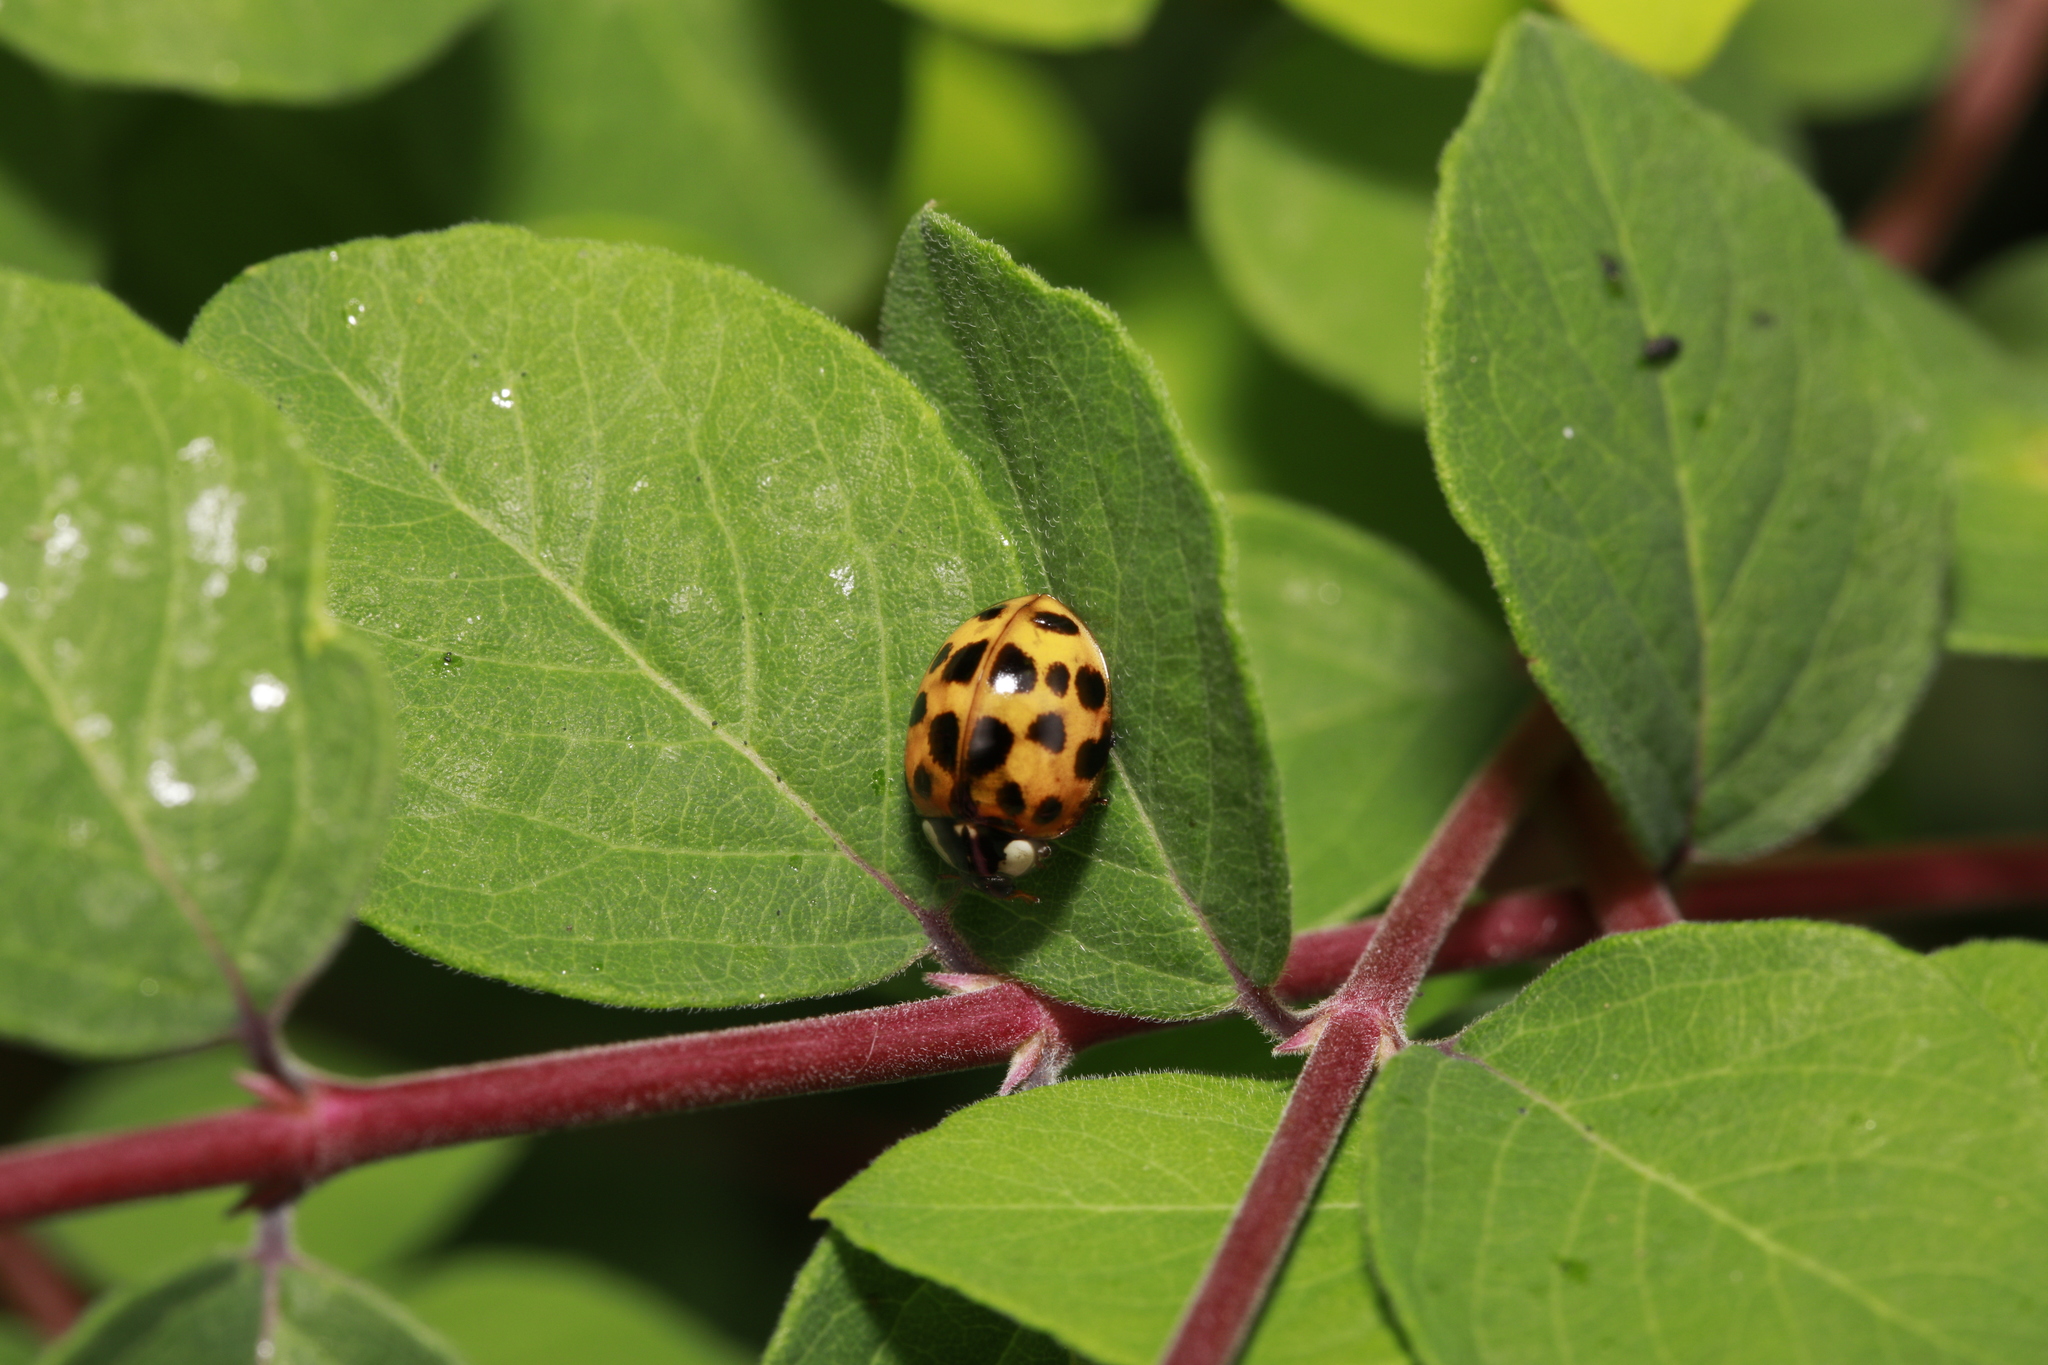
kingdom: Animalia
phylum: Arthropoda
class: Insecta
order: Coleoptera
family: Coccinellidae
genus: Harmonia
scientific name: Harmonia axyridis
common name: Harlequin ladybird
